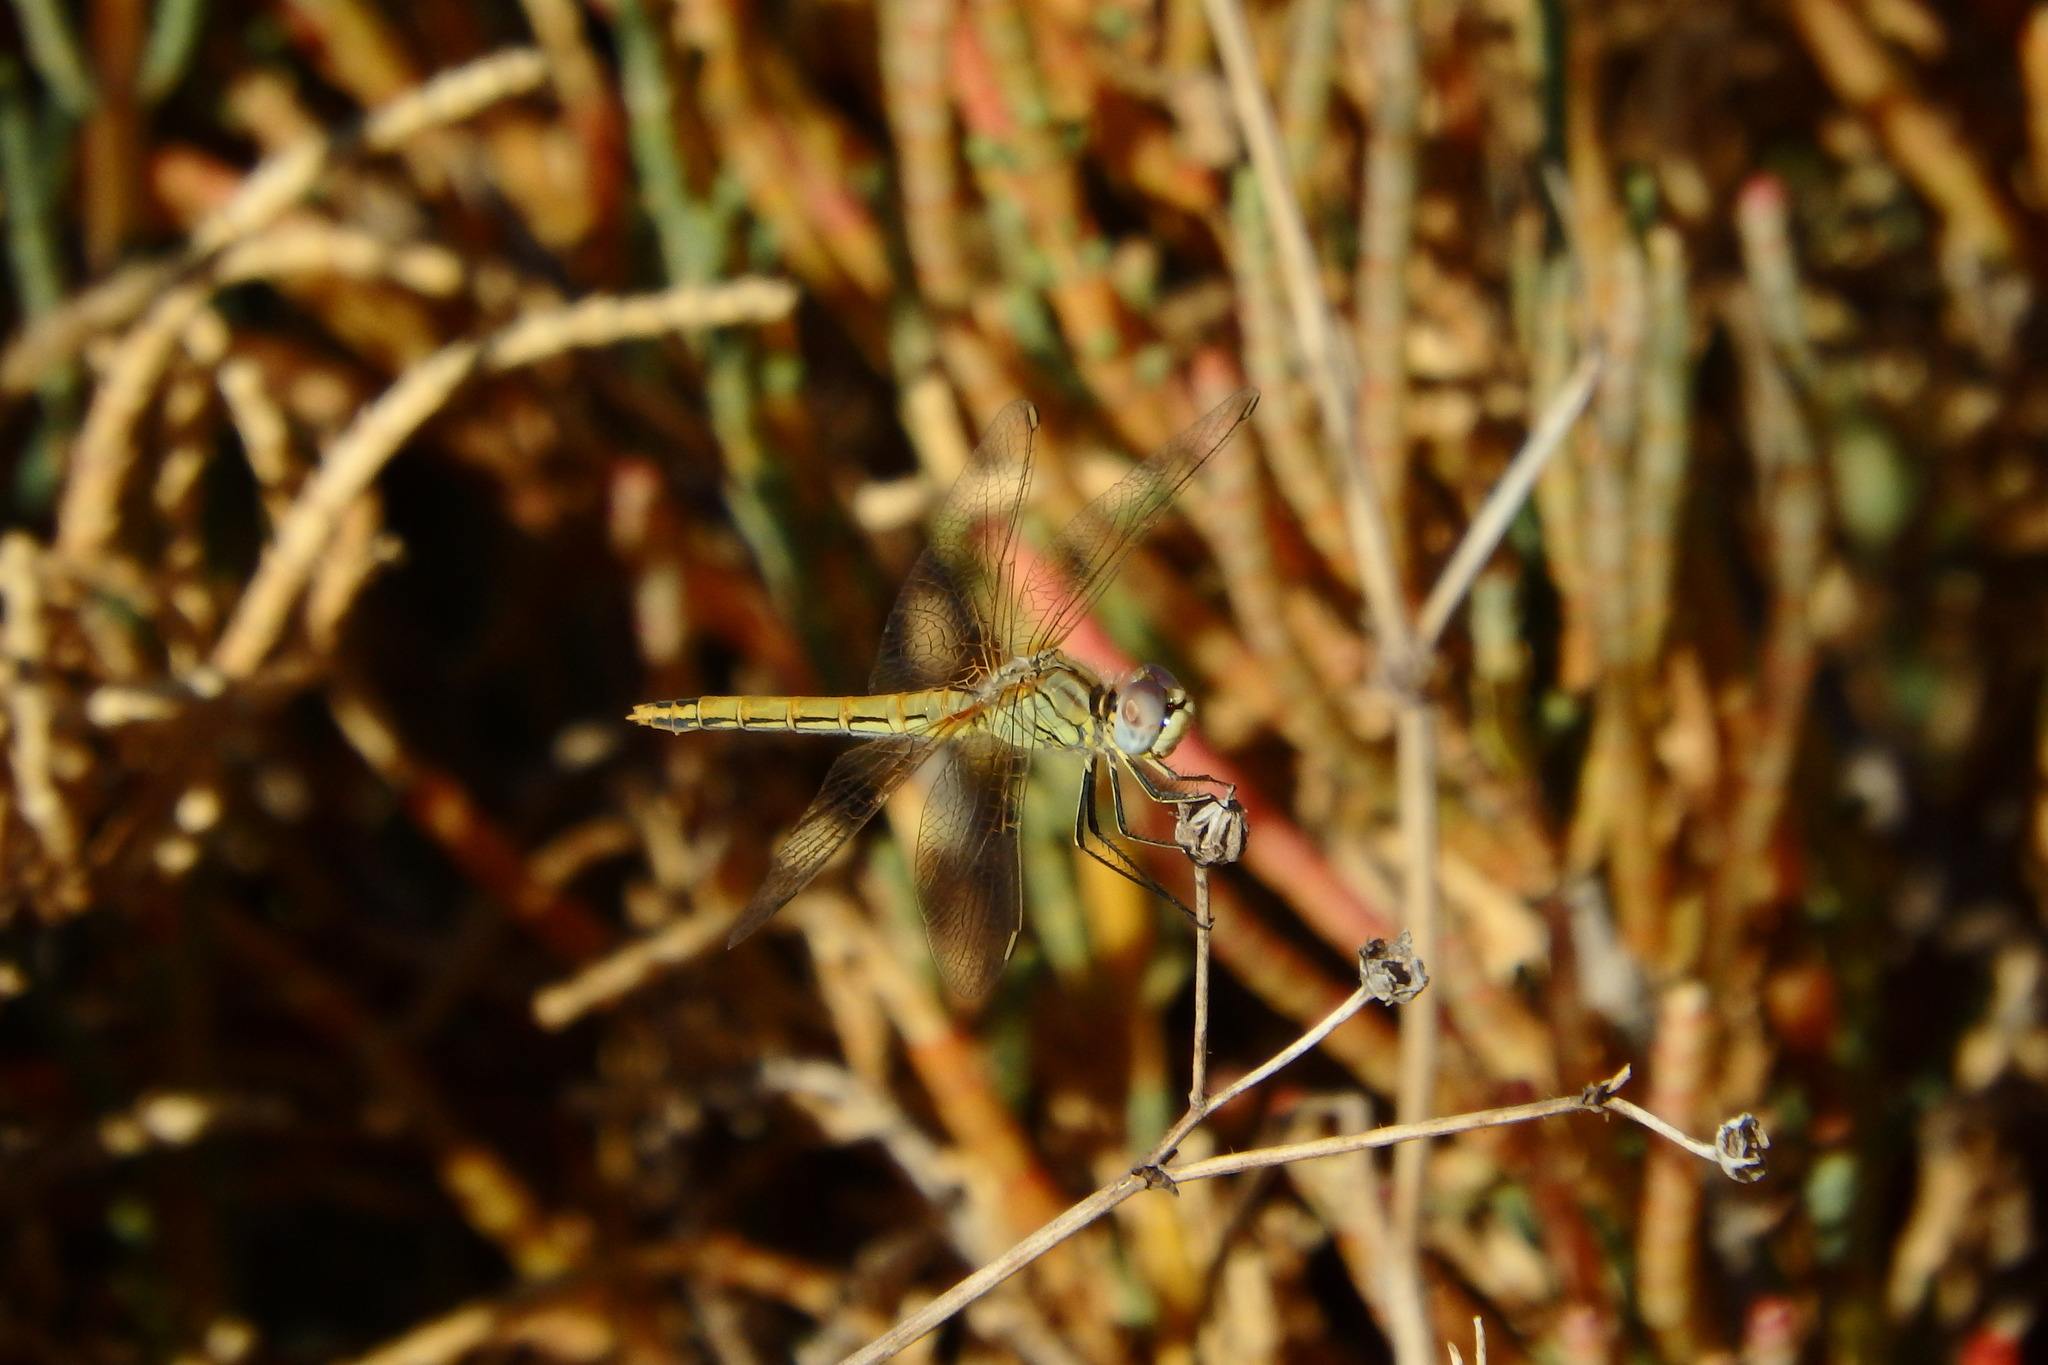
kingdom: Animalia
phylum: Arthropoda
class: Insecta
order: Odonata
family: Libellulidae
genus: Sympetrum
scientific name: Sympetrum fonscolombii
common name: Red-veined darter
